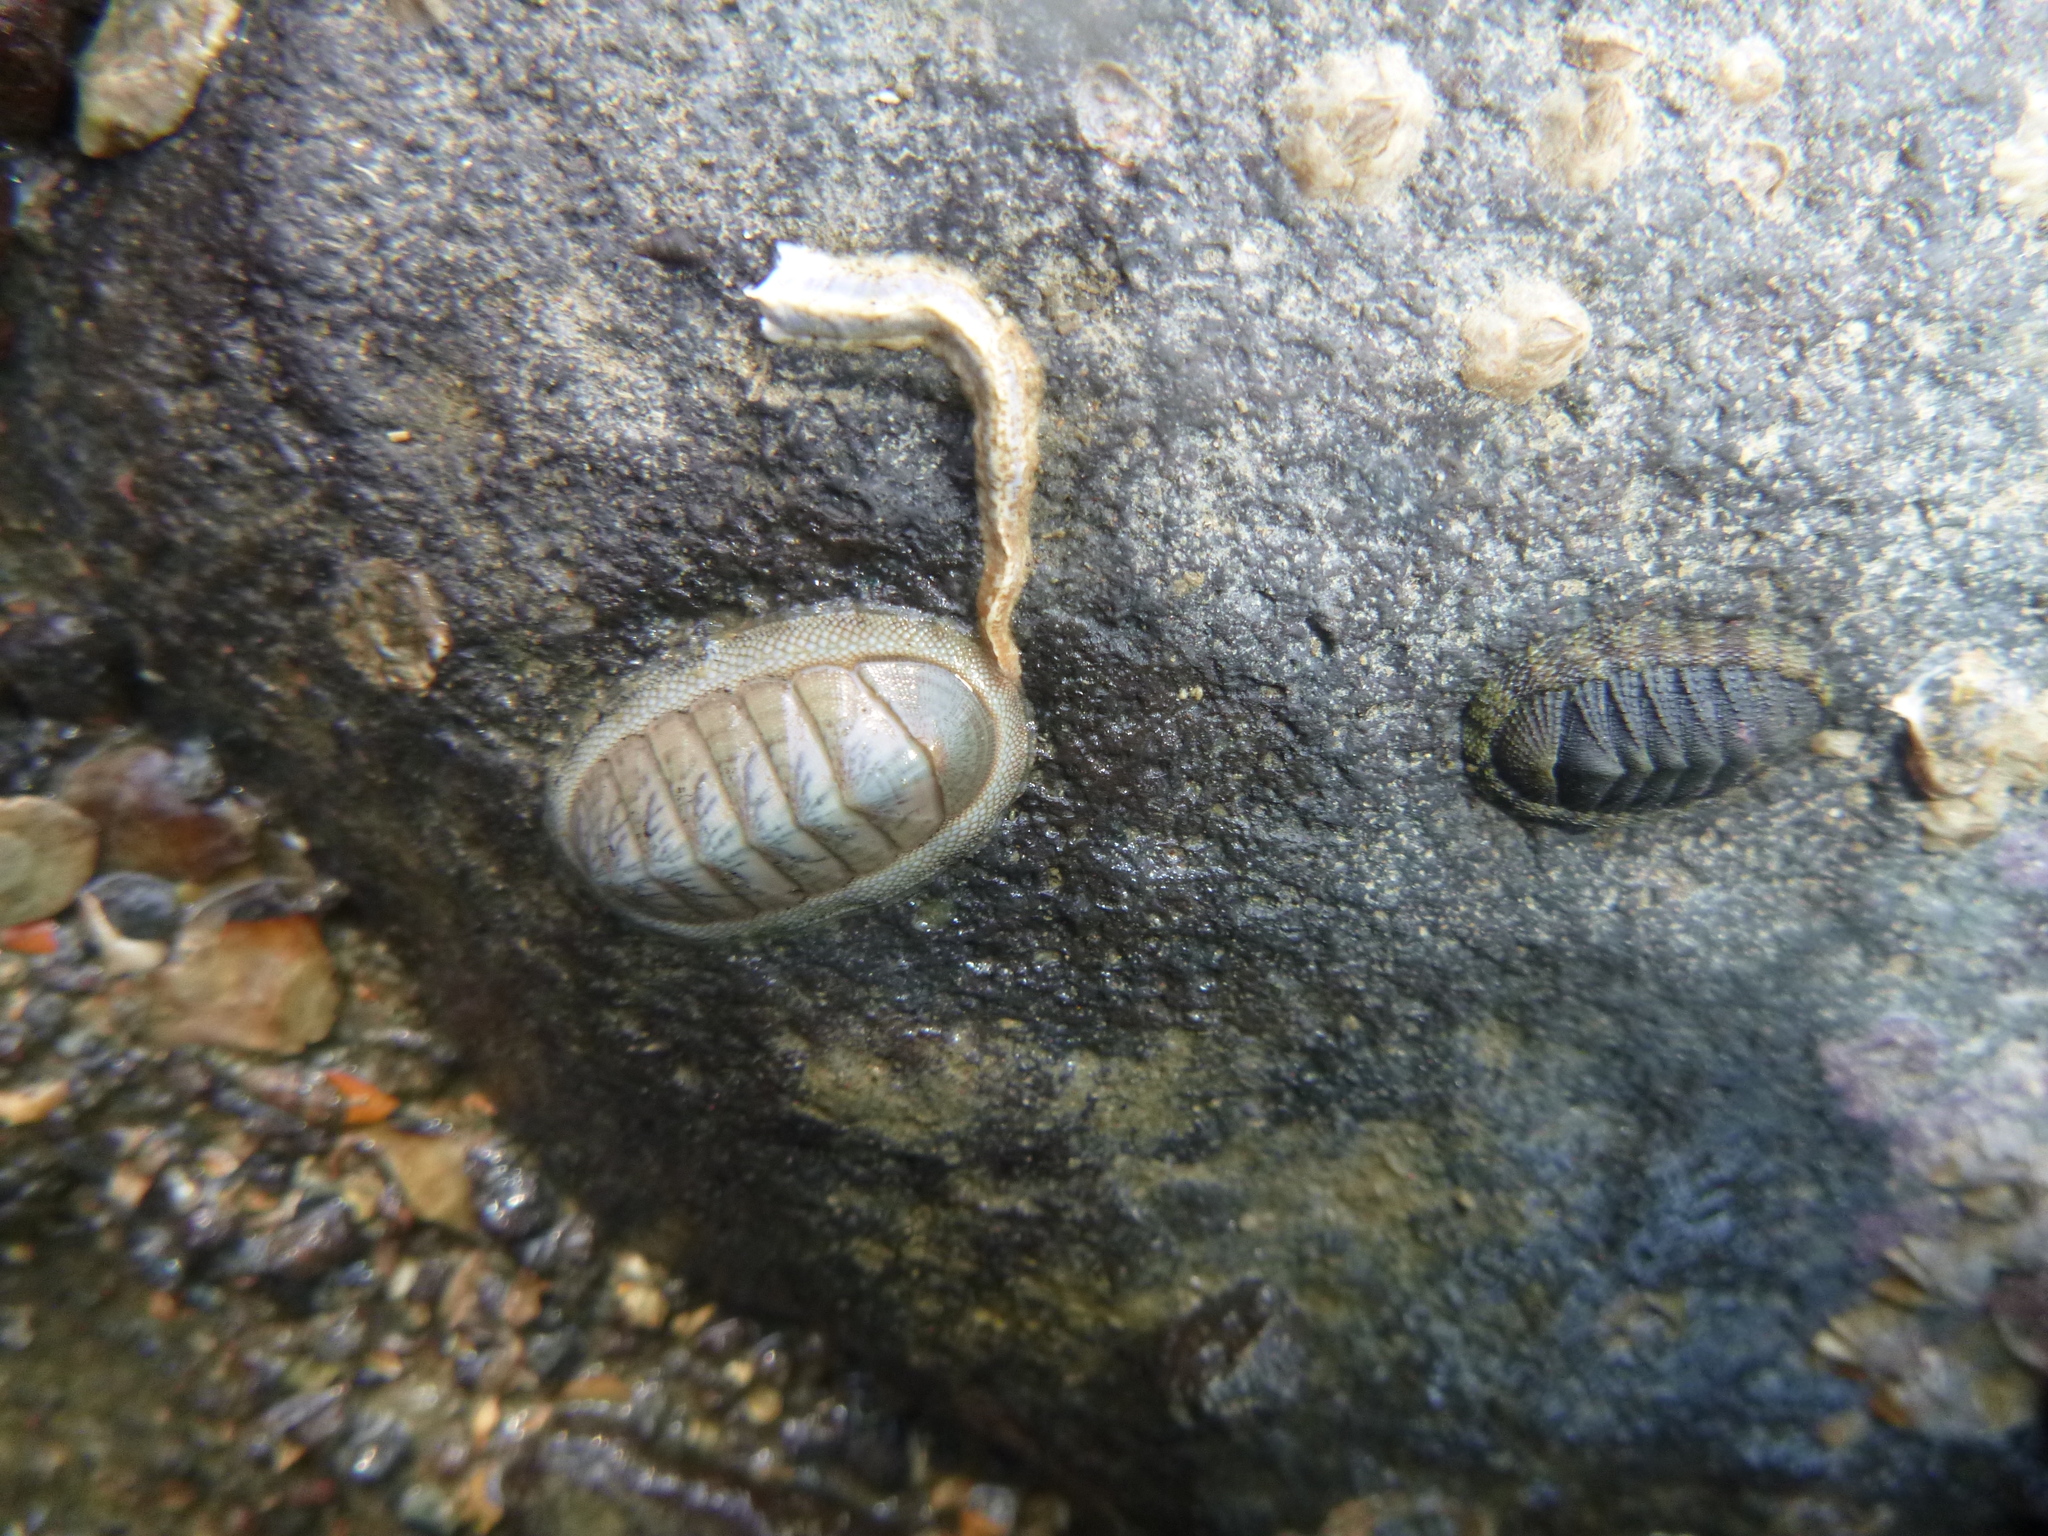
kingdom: Animalia
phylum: Mollusca
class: Polyplacophora
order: Chitonida
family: Chitonidae
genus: Chiton
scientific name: Chiton glaucus
